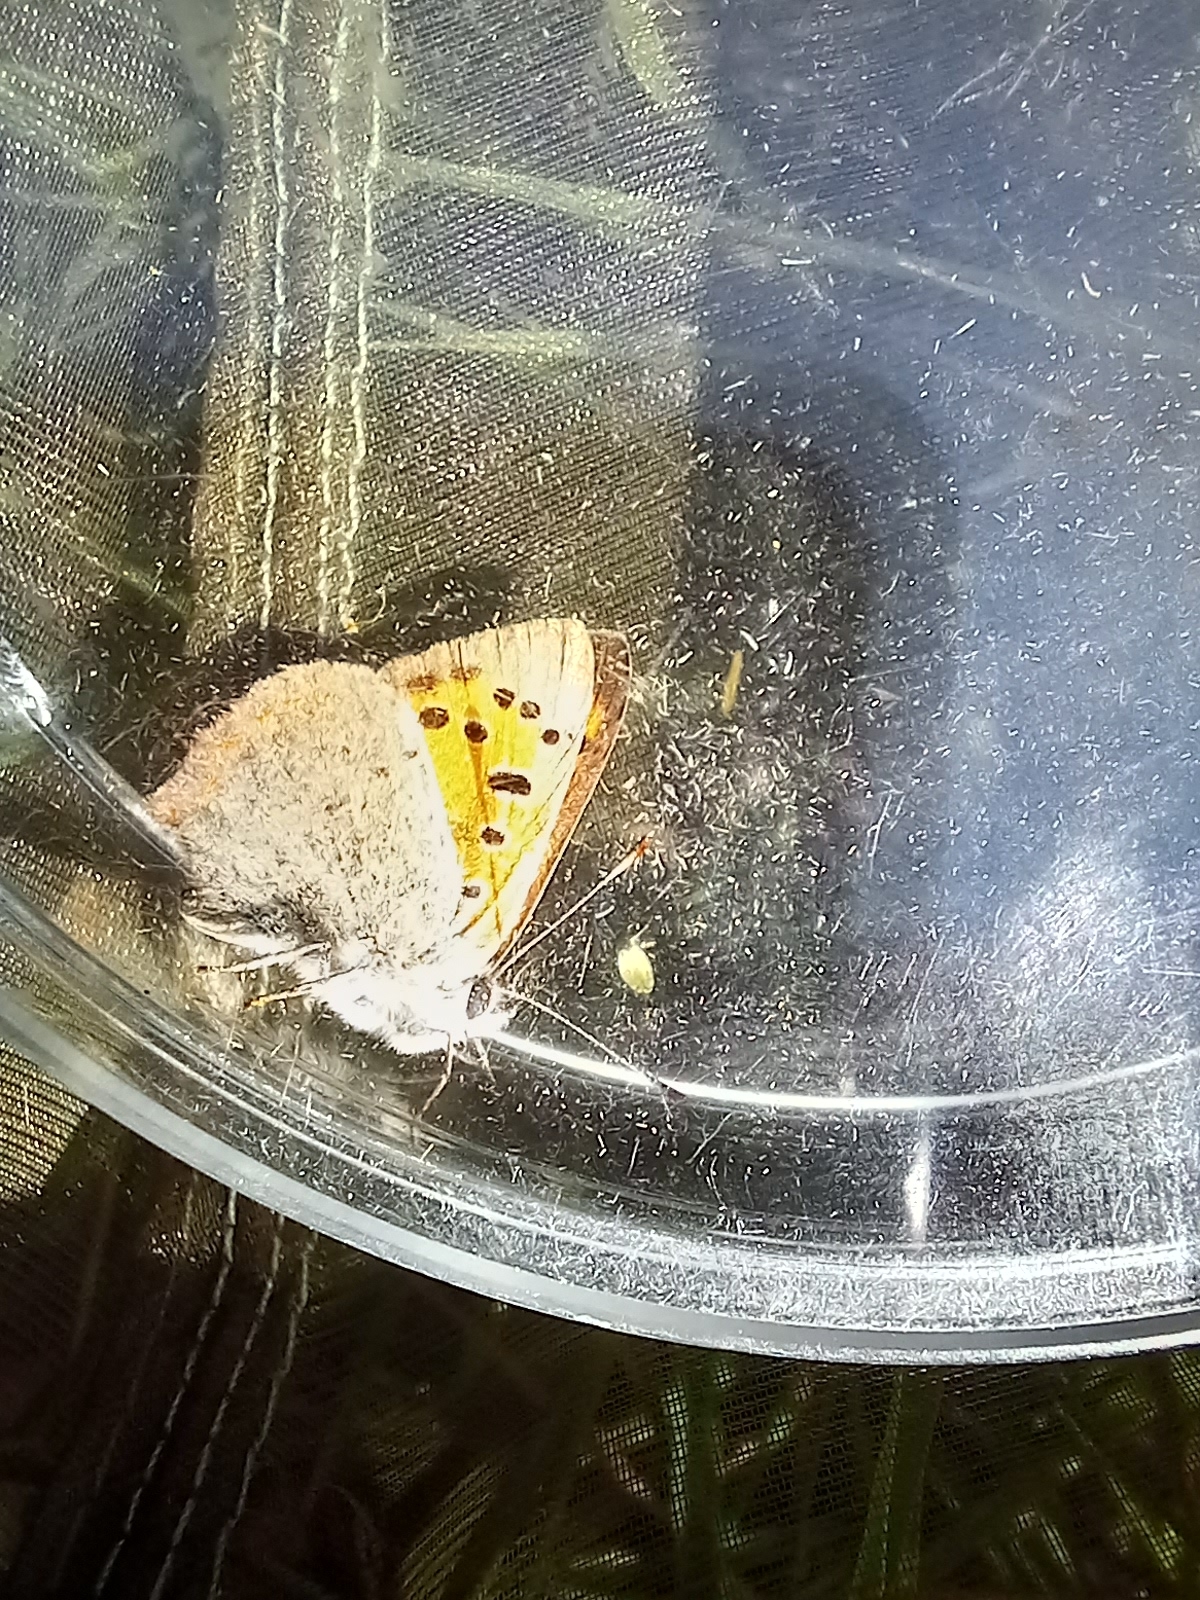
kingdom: Animalia
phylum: Arthropoda
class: Insecta
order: Lepidoptera
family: Lycaenidae
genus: Lycaena
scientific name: Lycaena phlaeas
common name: Small copper
